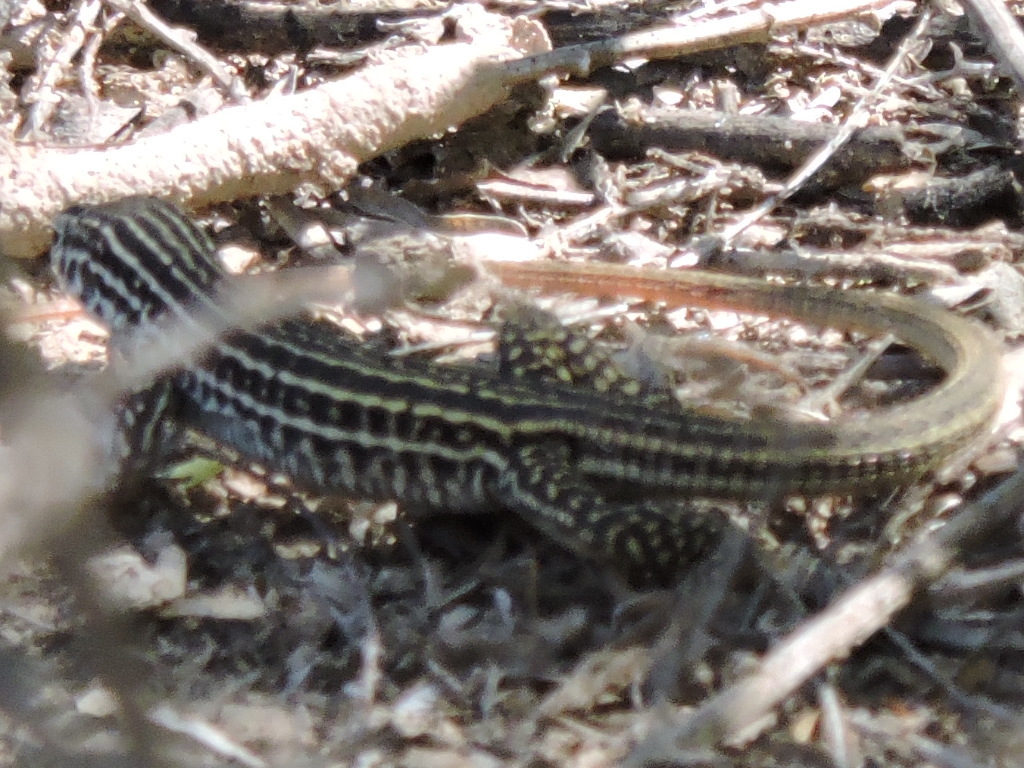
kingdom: Animalia
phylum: Chordata
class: Squamata
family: Teiidae
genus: Aspidoscelis
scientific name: Aspidoscelis tesselatus
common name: Common checkered whiptail [tesselata]
